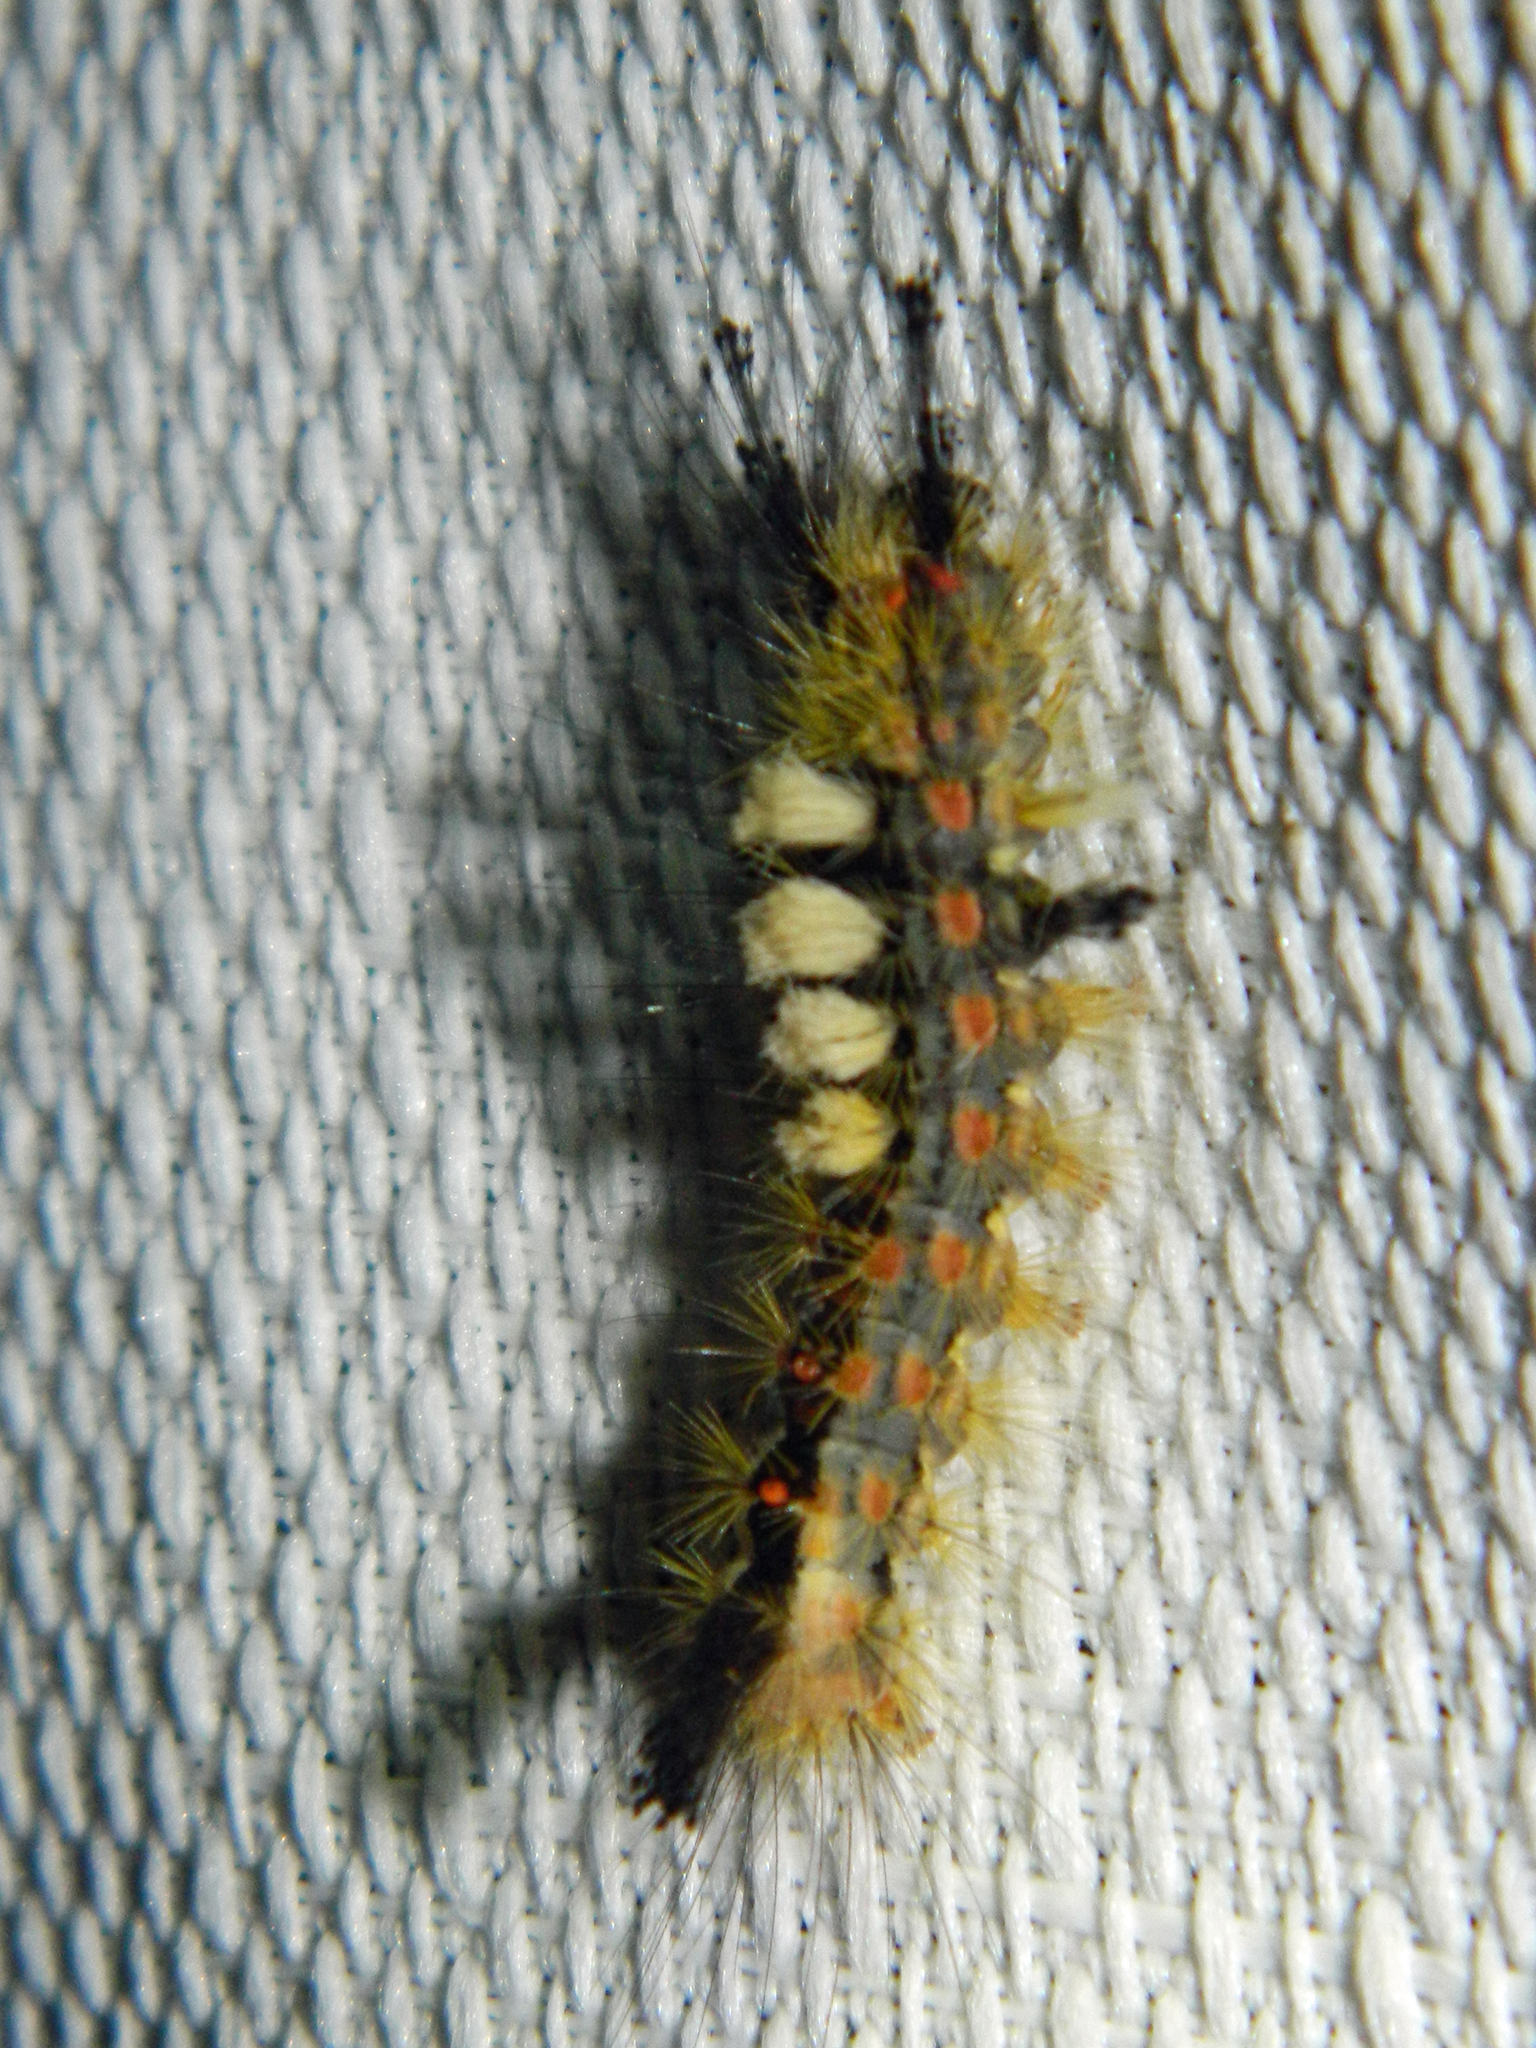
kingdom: Animalia
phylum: Arthropoda
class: Insecta
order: Lepidoptera
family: Erebidae
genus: Orgyia
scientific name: Orgyia antiqua
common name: Vapourer
